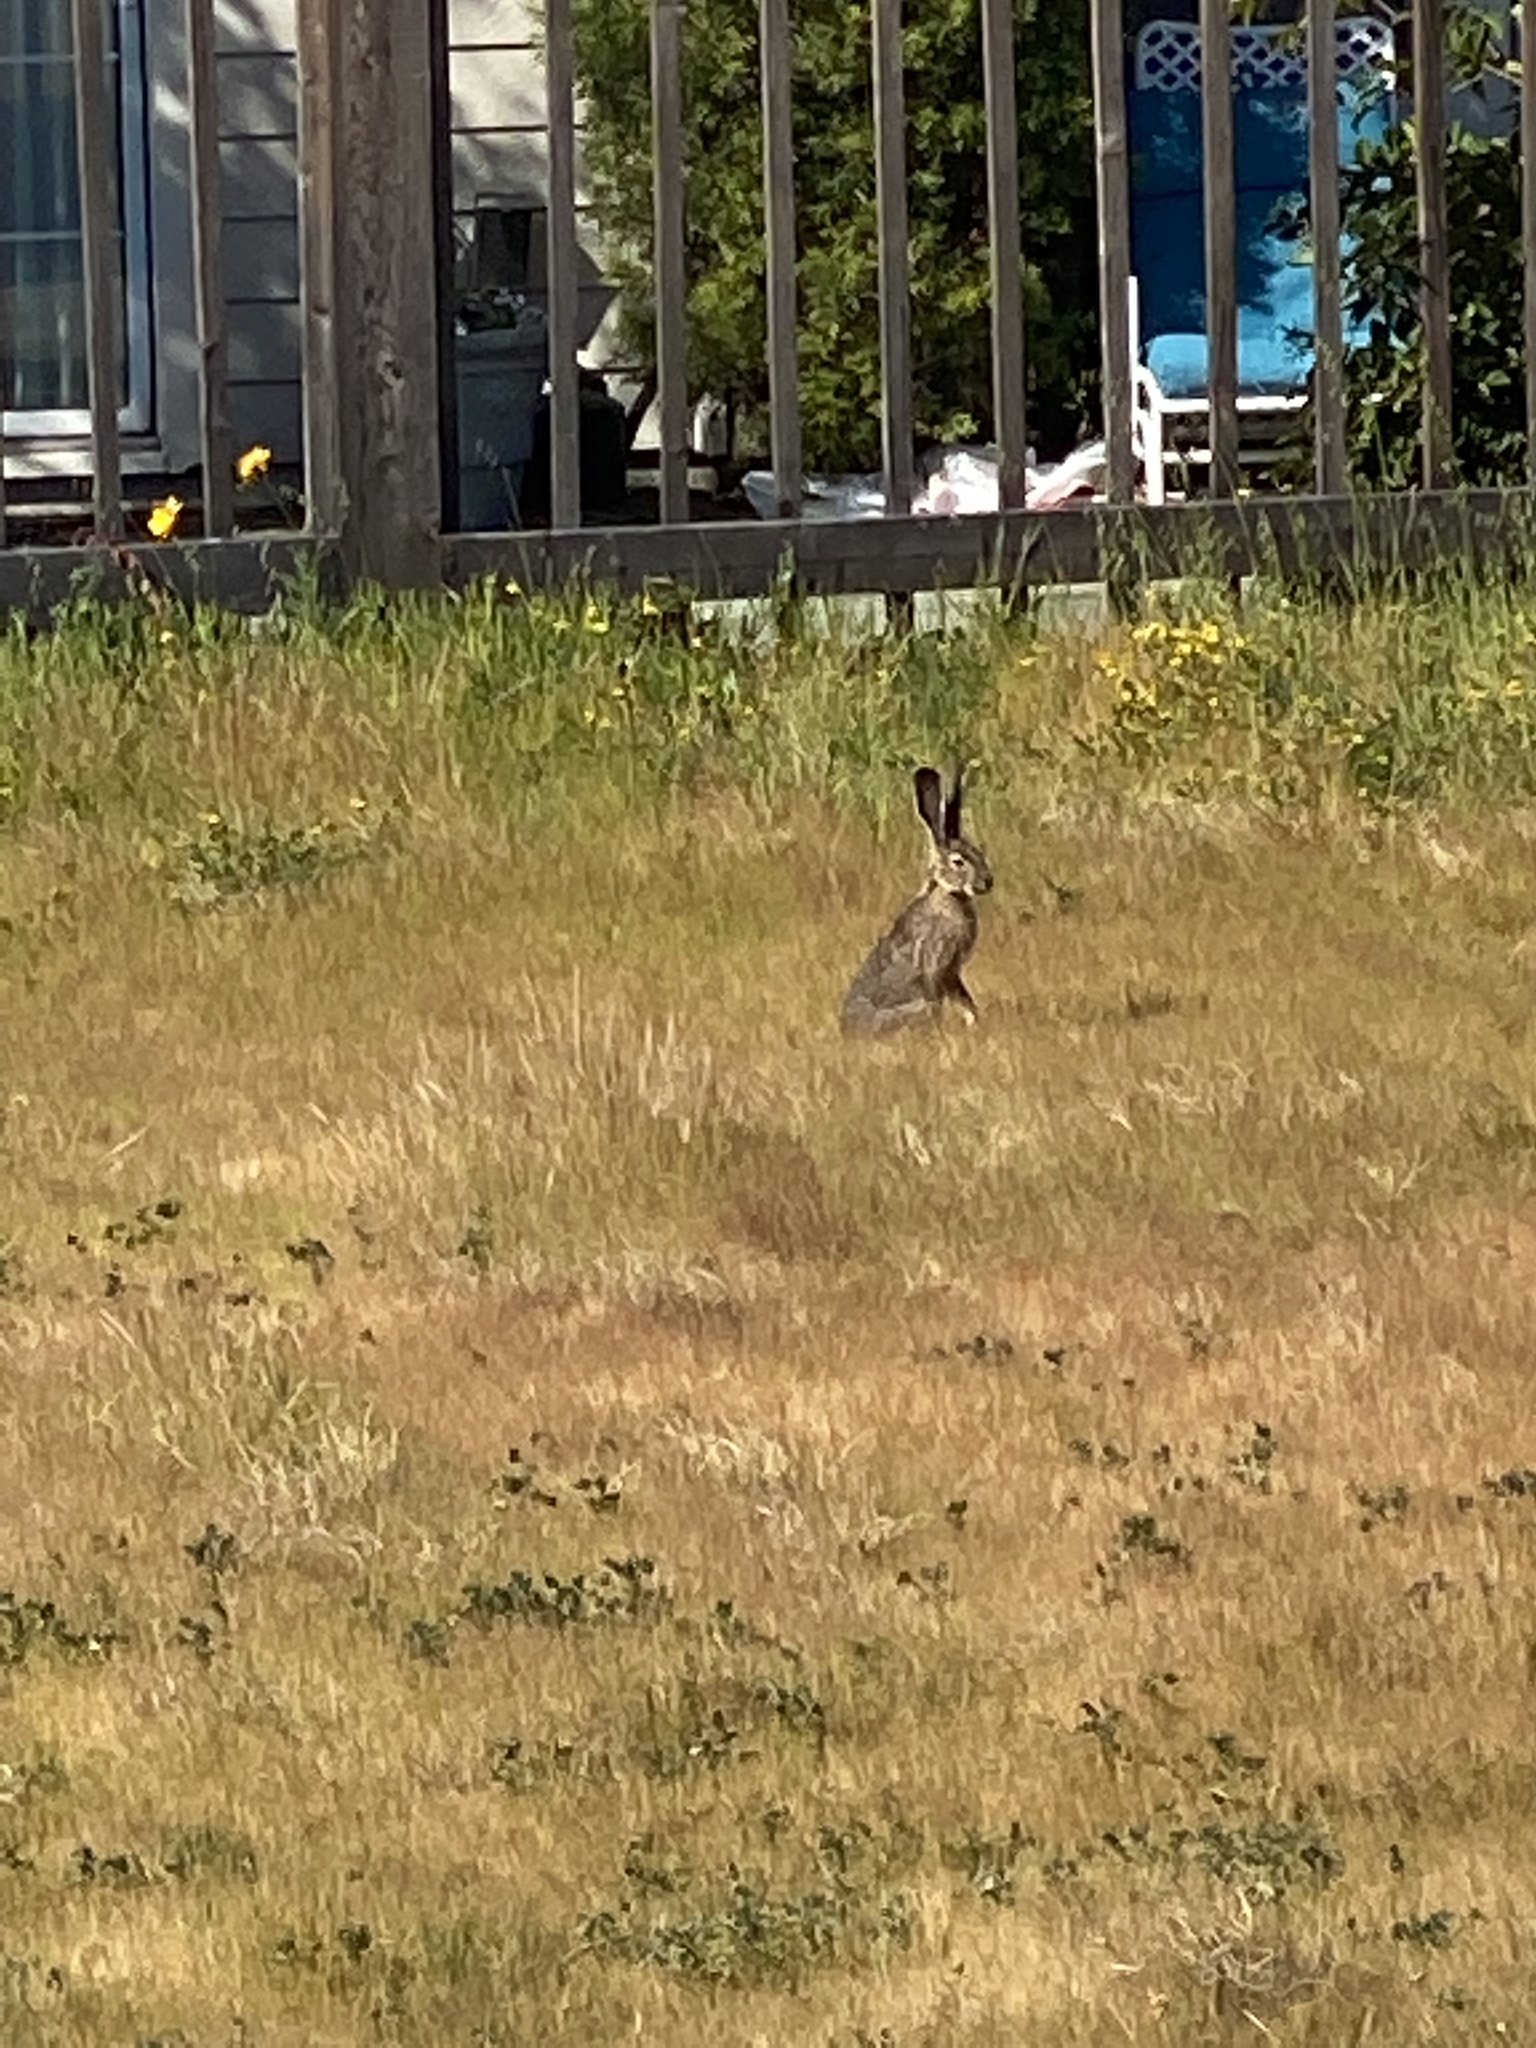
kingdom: Animalia
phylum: Chordata
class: Mammalia
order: Lagomorpha
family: Leporidae
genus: Lepus
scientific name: Lepus californicus
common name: Black-tailed jackrabbit
